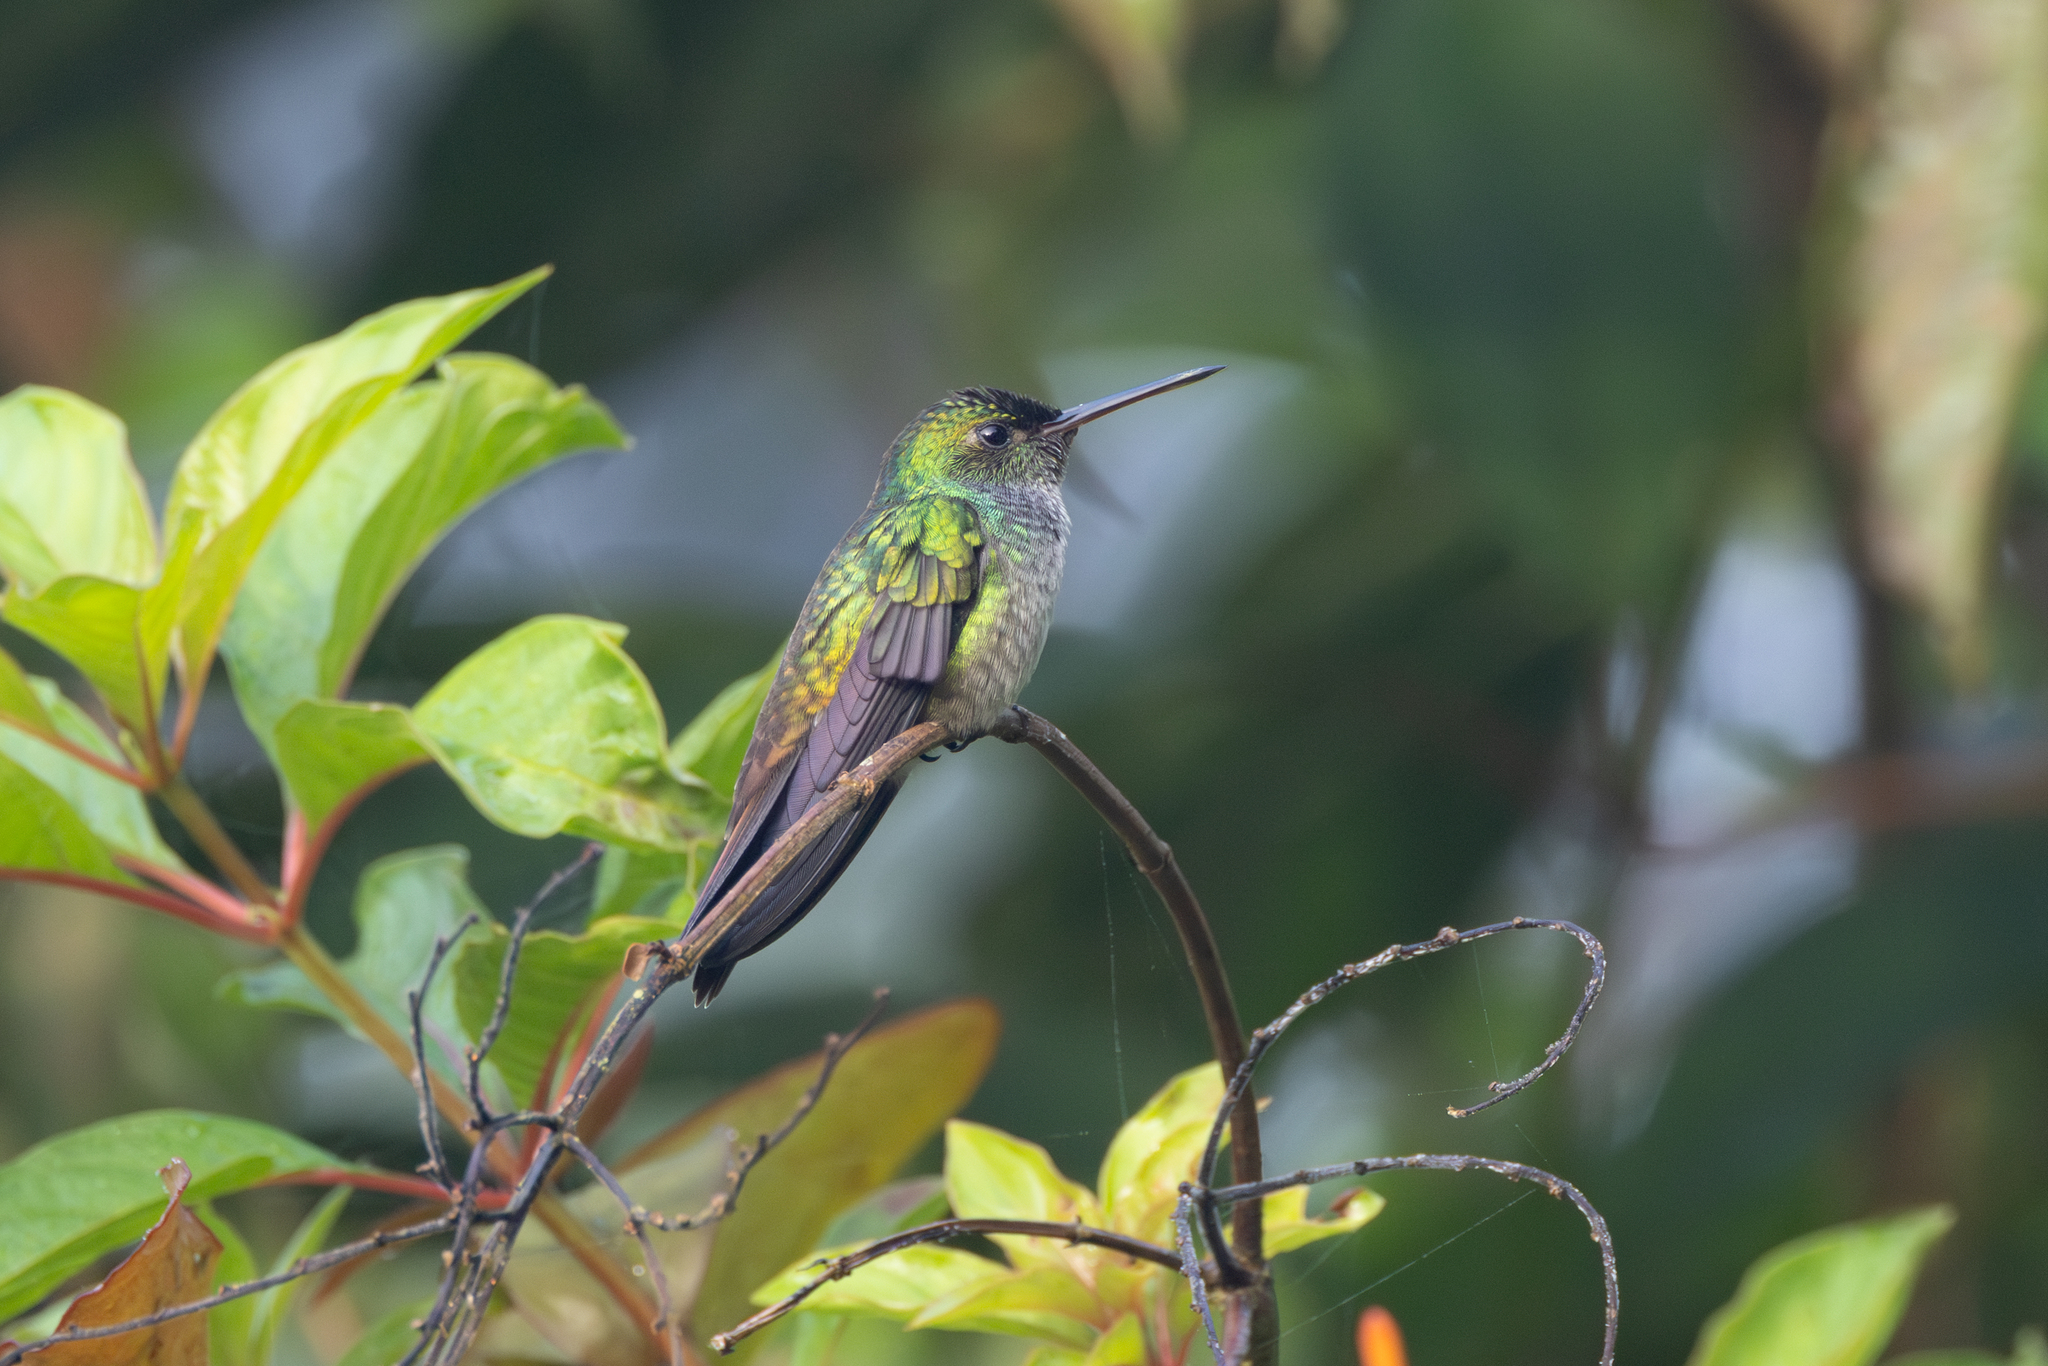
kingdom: Animalia
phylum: Chordata
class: Aves
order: Apodiformes
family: Trochilidae
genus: Polyerata
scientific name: Polyerata amabilis
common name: Blue-chested hummingbird
